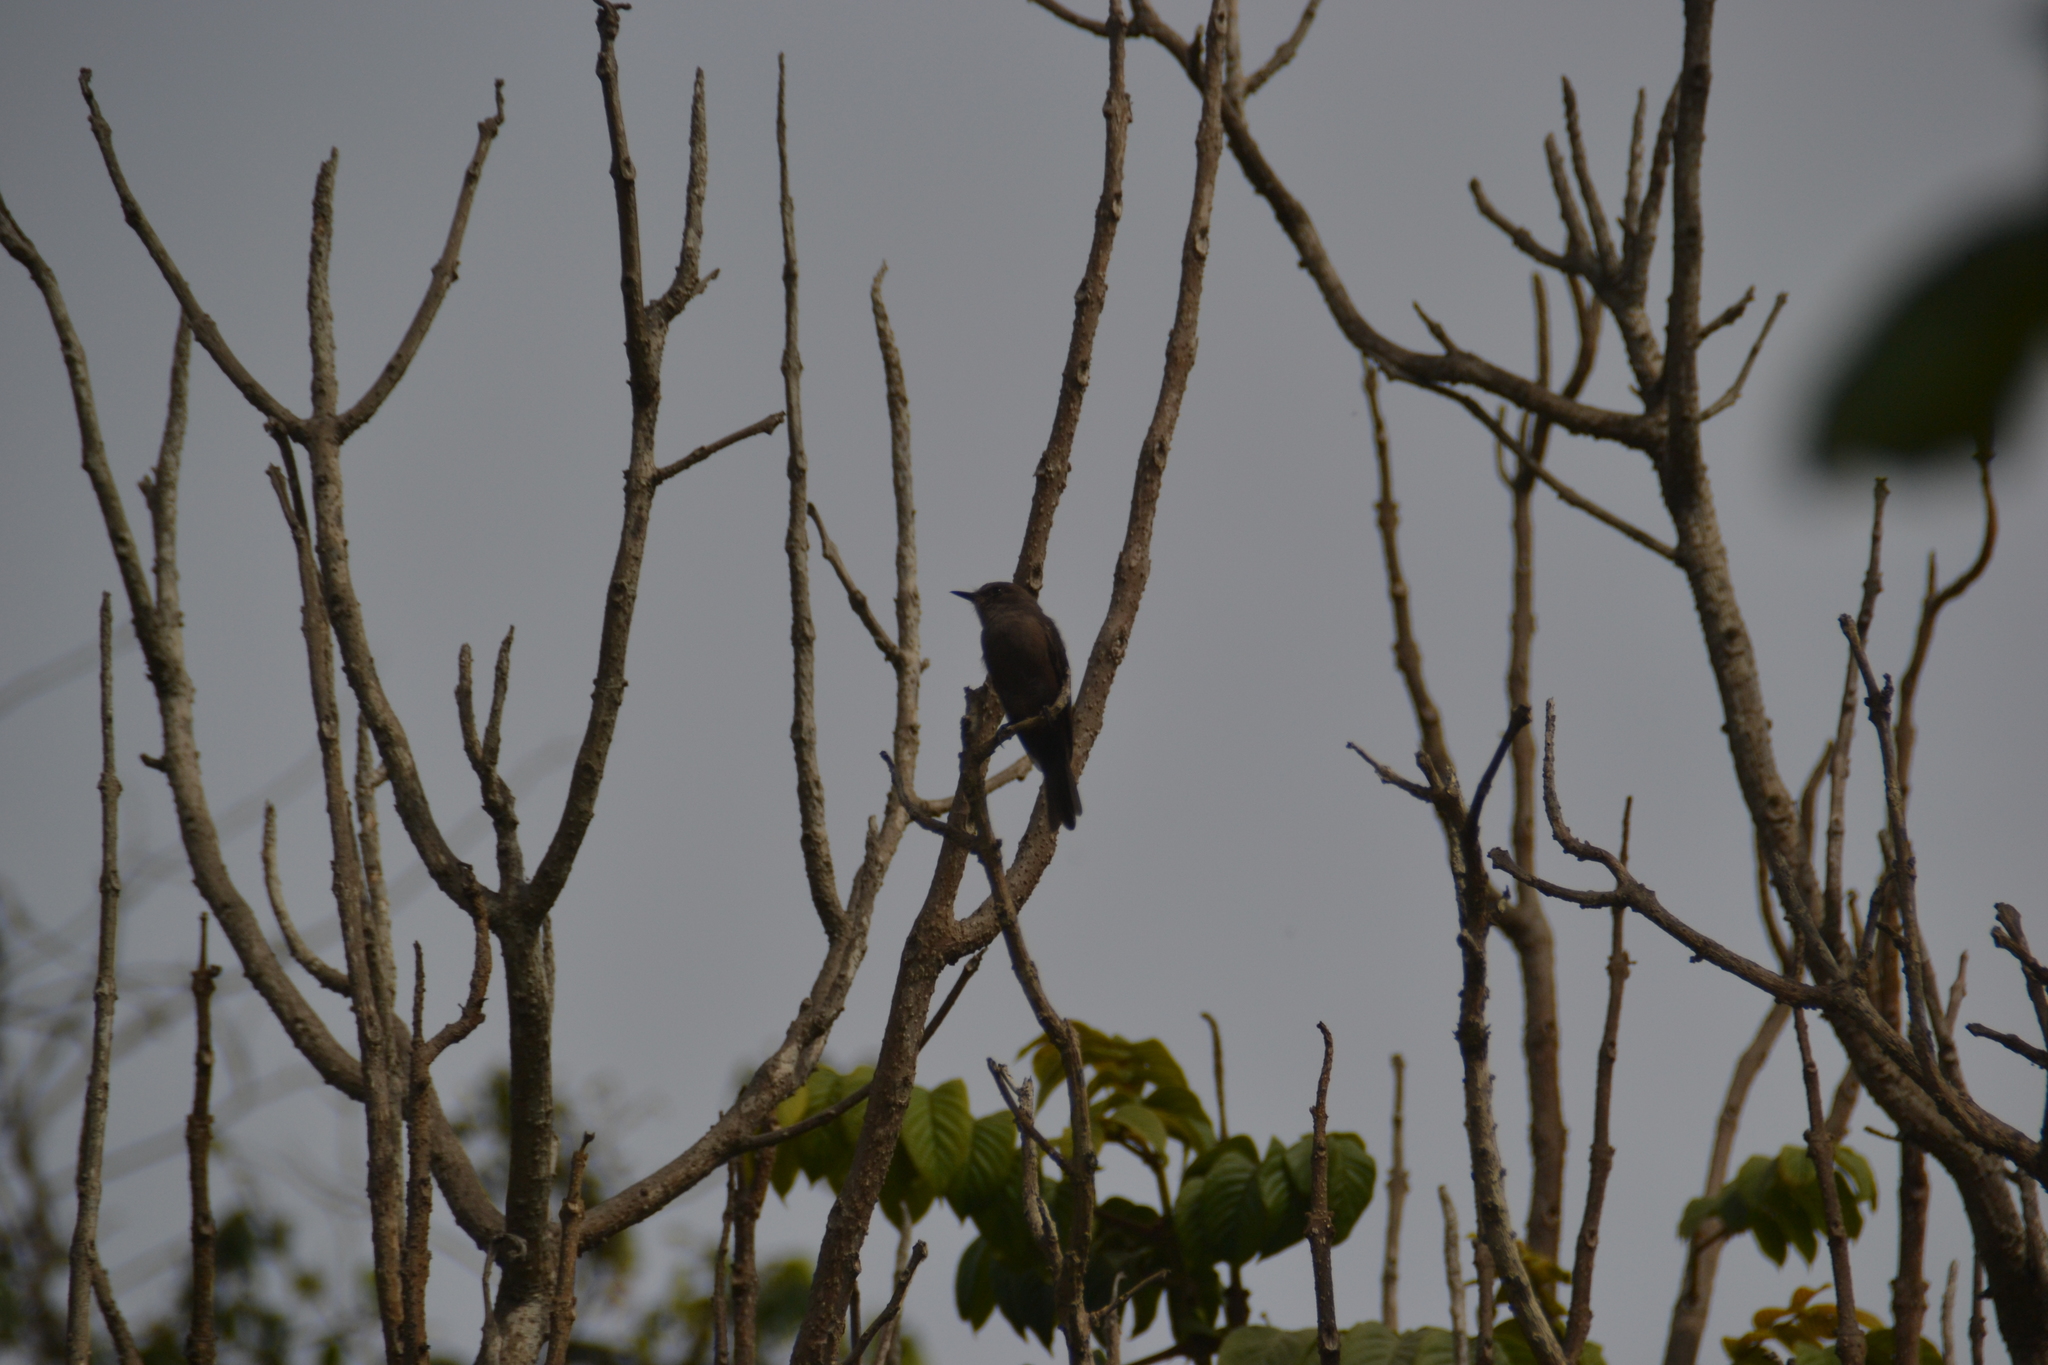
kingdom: Animalia
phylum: Chordata
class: Aves
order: Passeriformes
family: Tyrannidae
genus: Pyrocephalus
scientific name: Pyrocephalus rubinus
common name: Vermilion flycatcher
